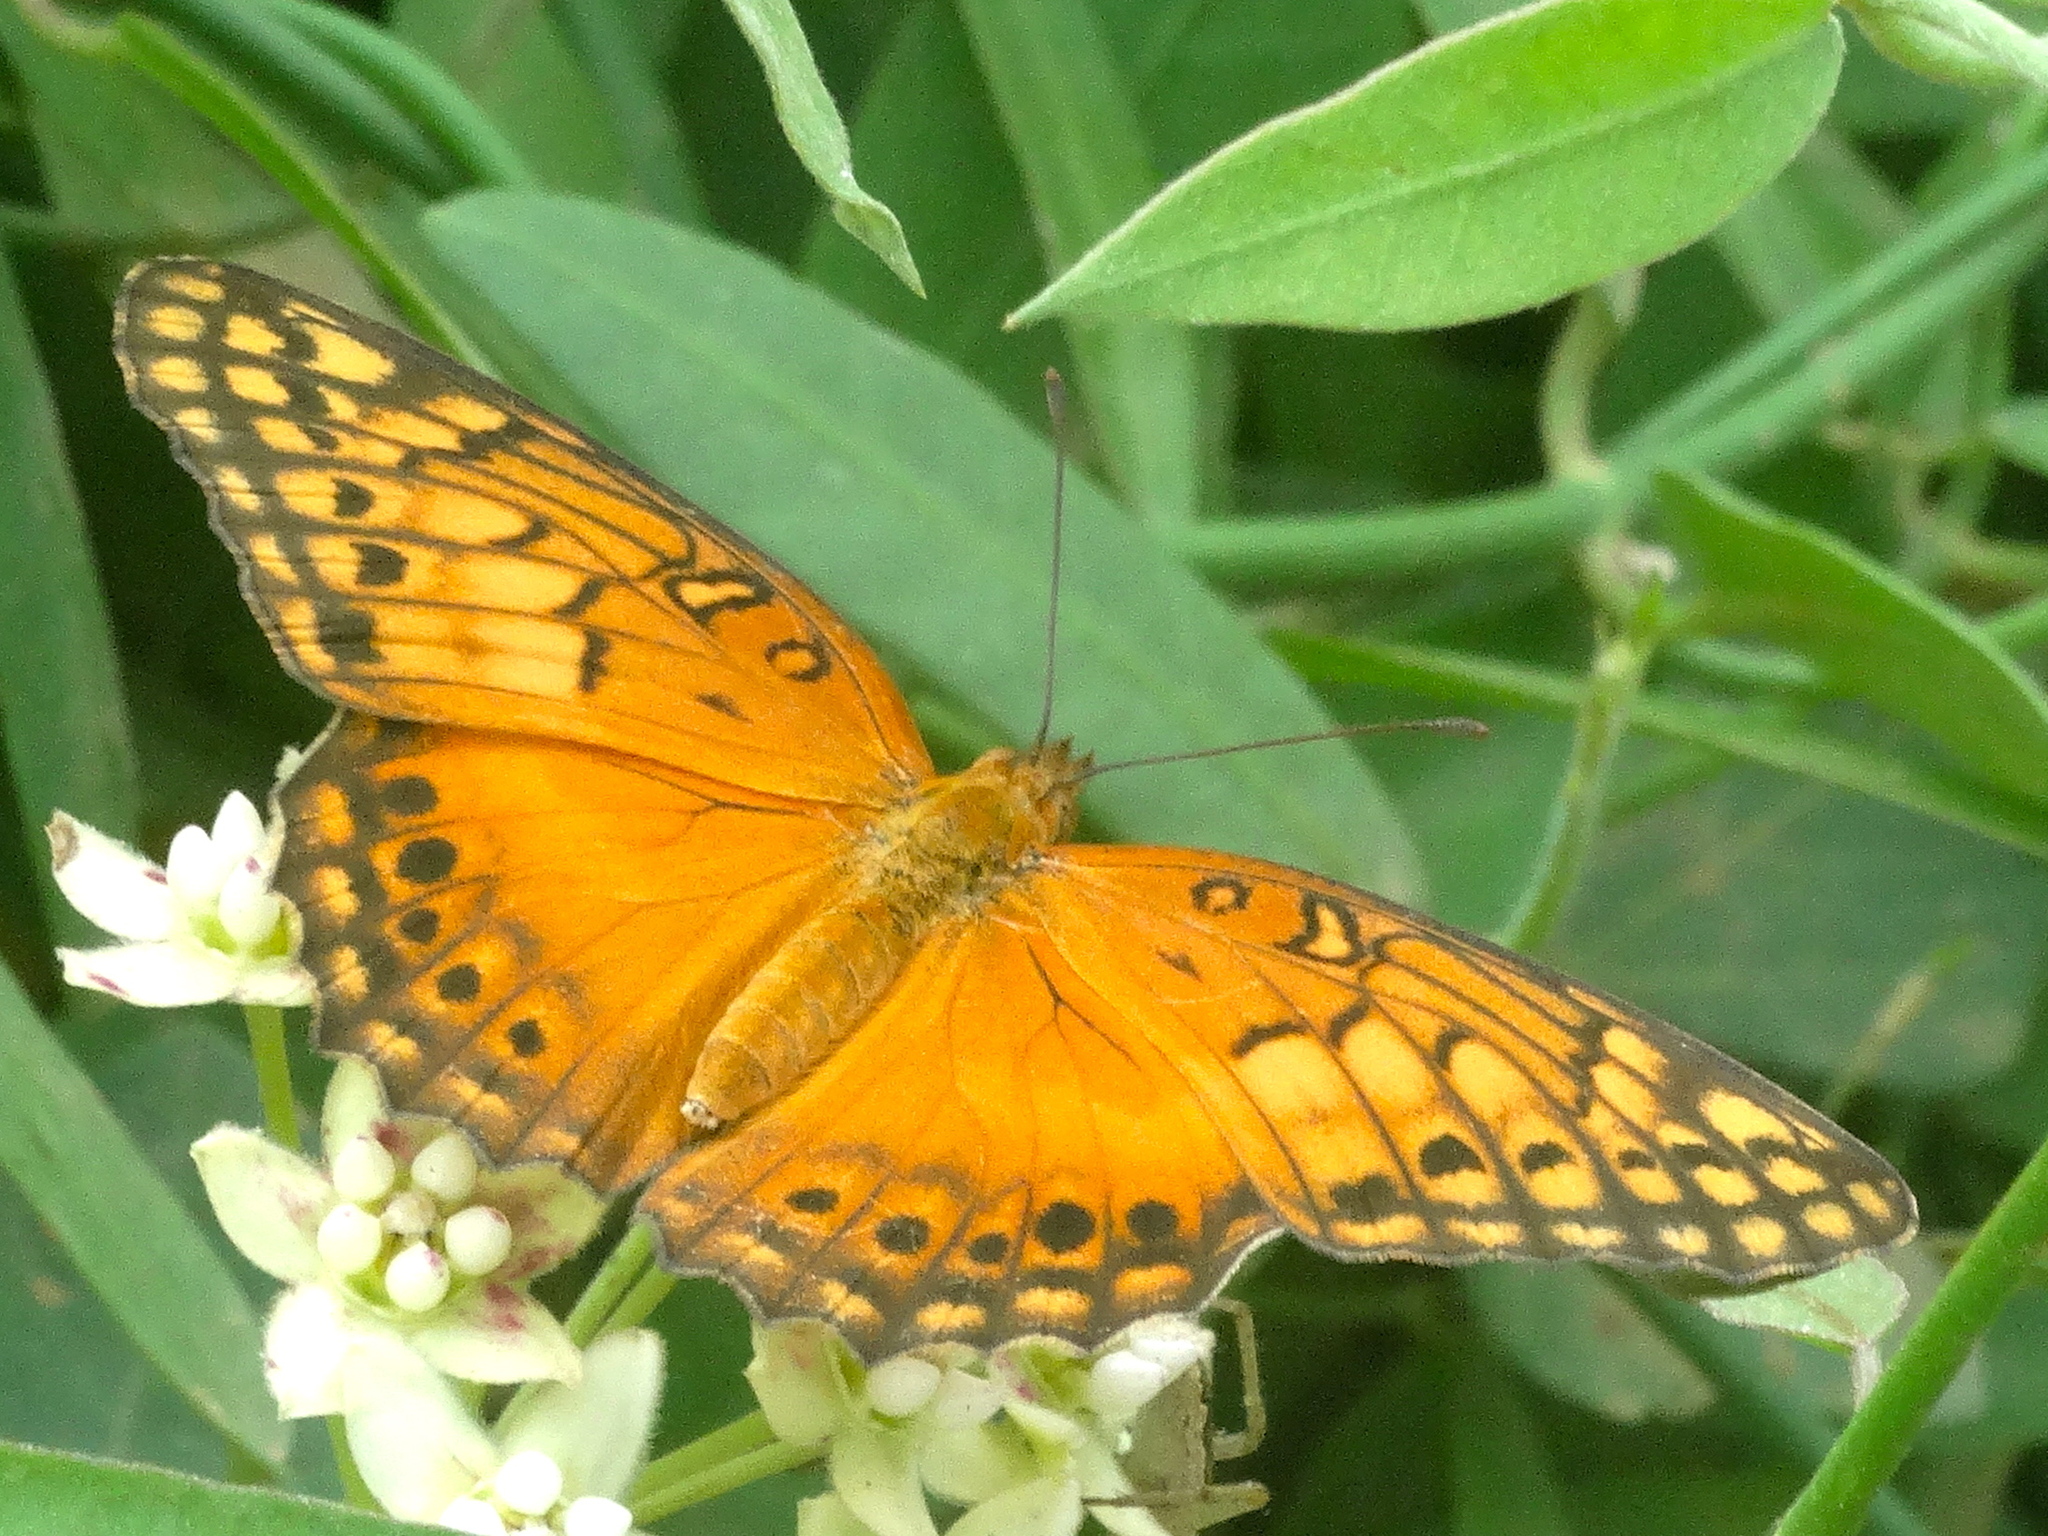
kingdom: Animalia
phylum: Arthropoda
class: Insecta
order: Lepidoptera
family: Nymphalidae
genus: Euptoieta
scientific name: Euptoieta hegesia
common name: Mexican fritillary
